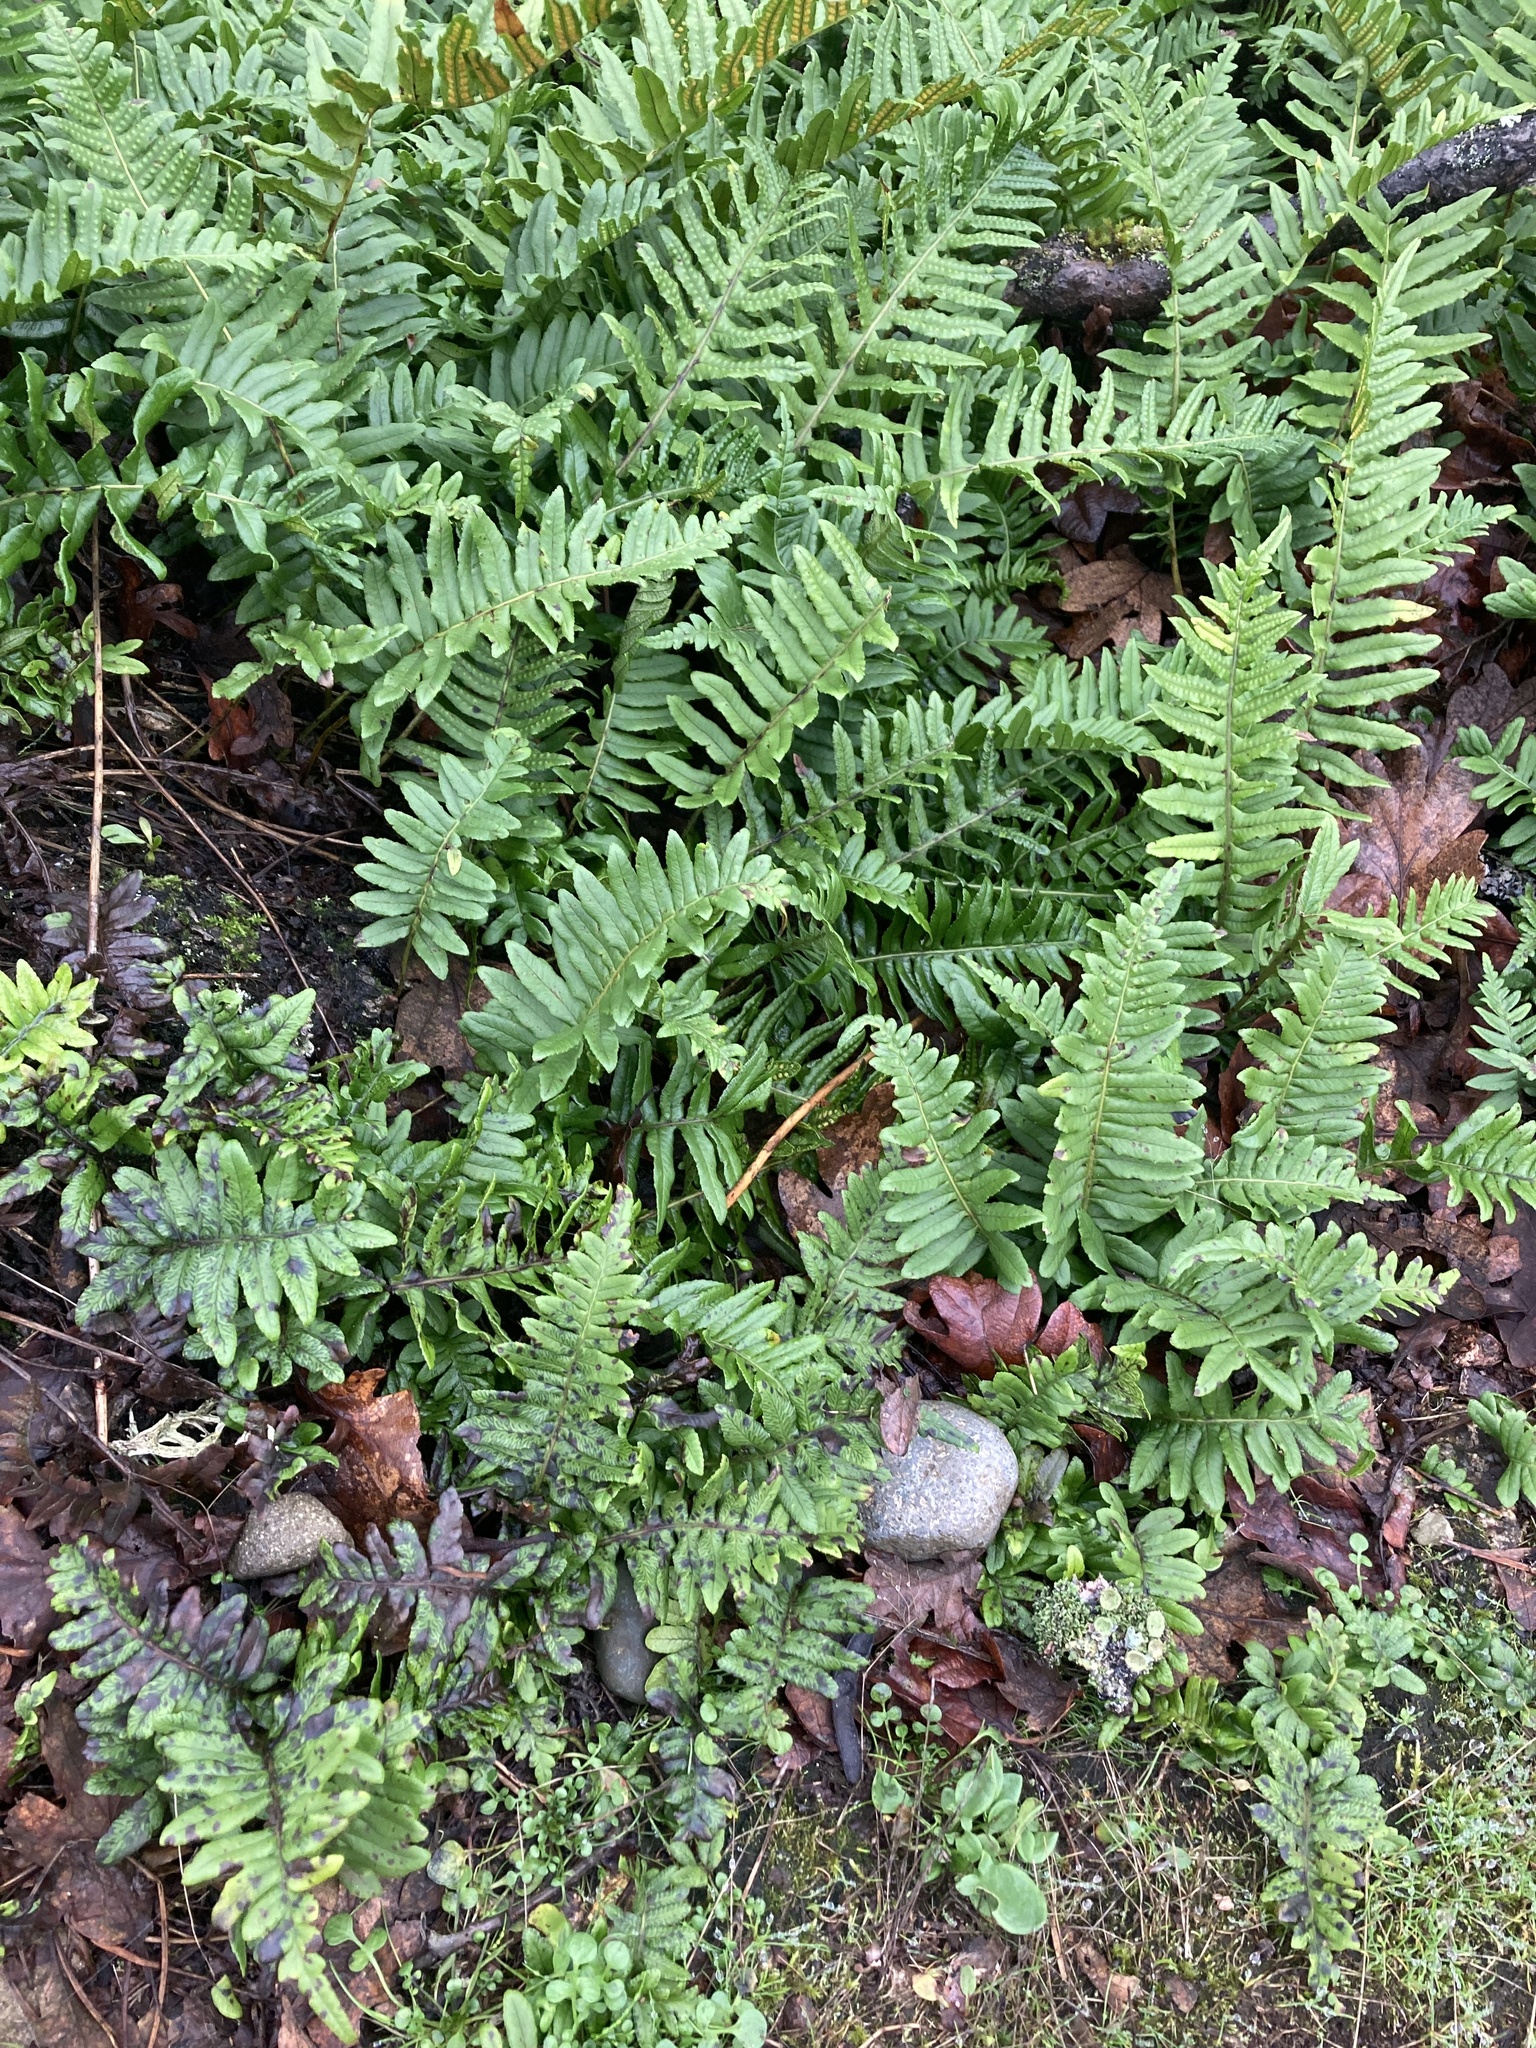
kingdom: Plantae
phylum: Tracheophyta
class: Polypodiopsida
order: Polypodiales
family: Polypodiaceae
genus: Polypodium
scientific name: Polypodium glycyrrhiza
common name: Licorice fern
